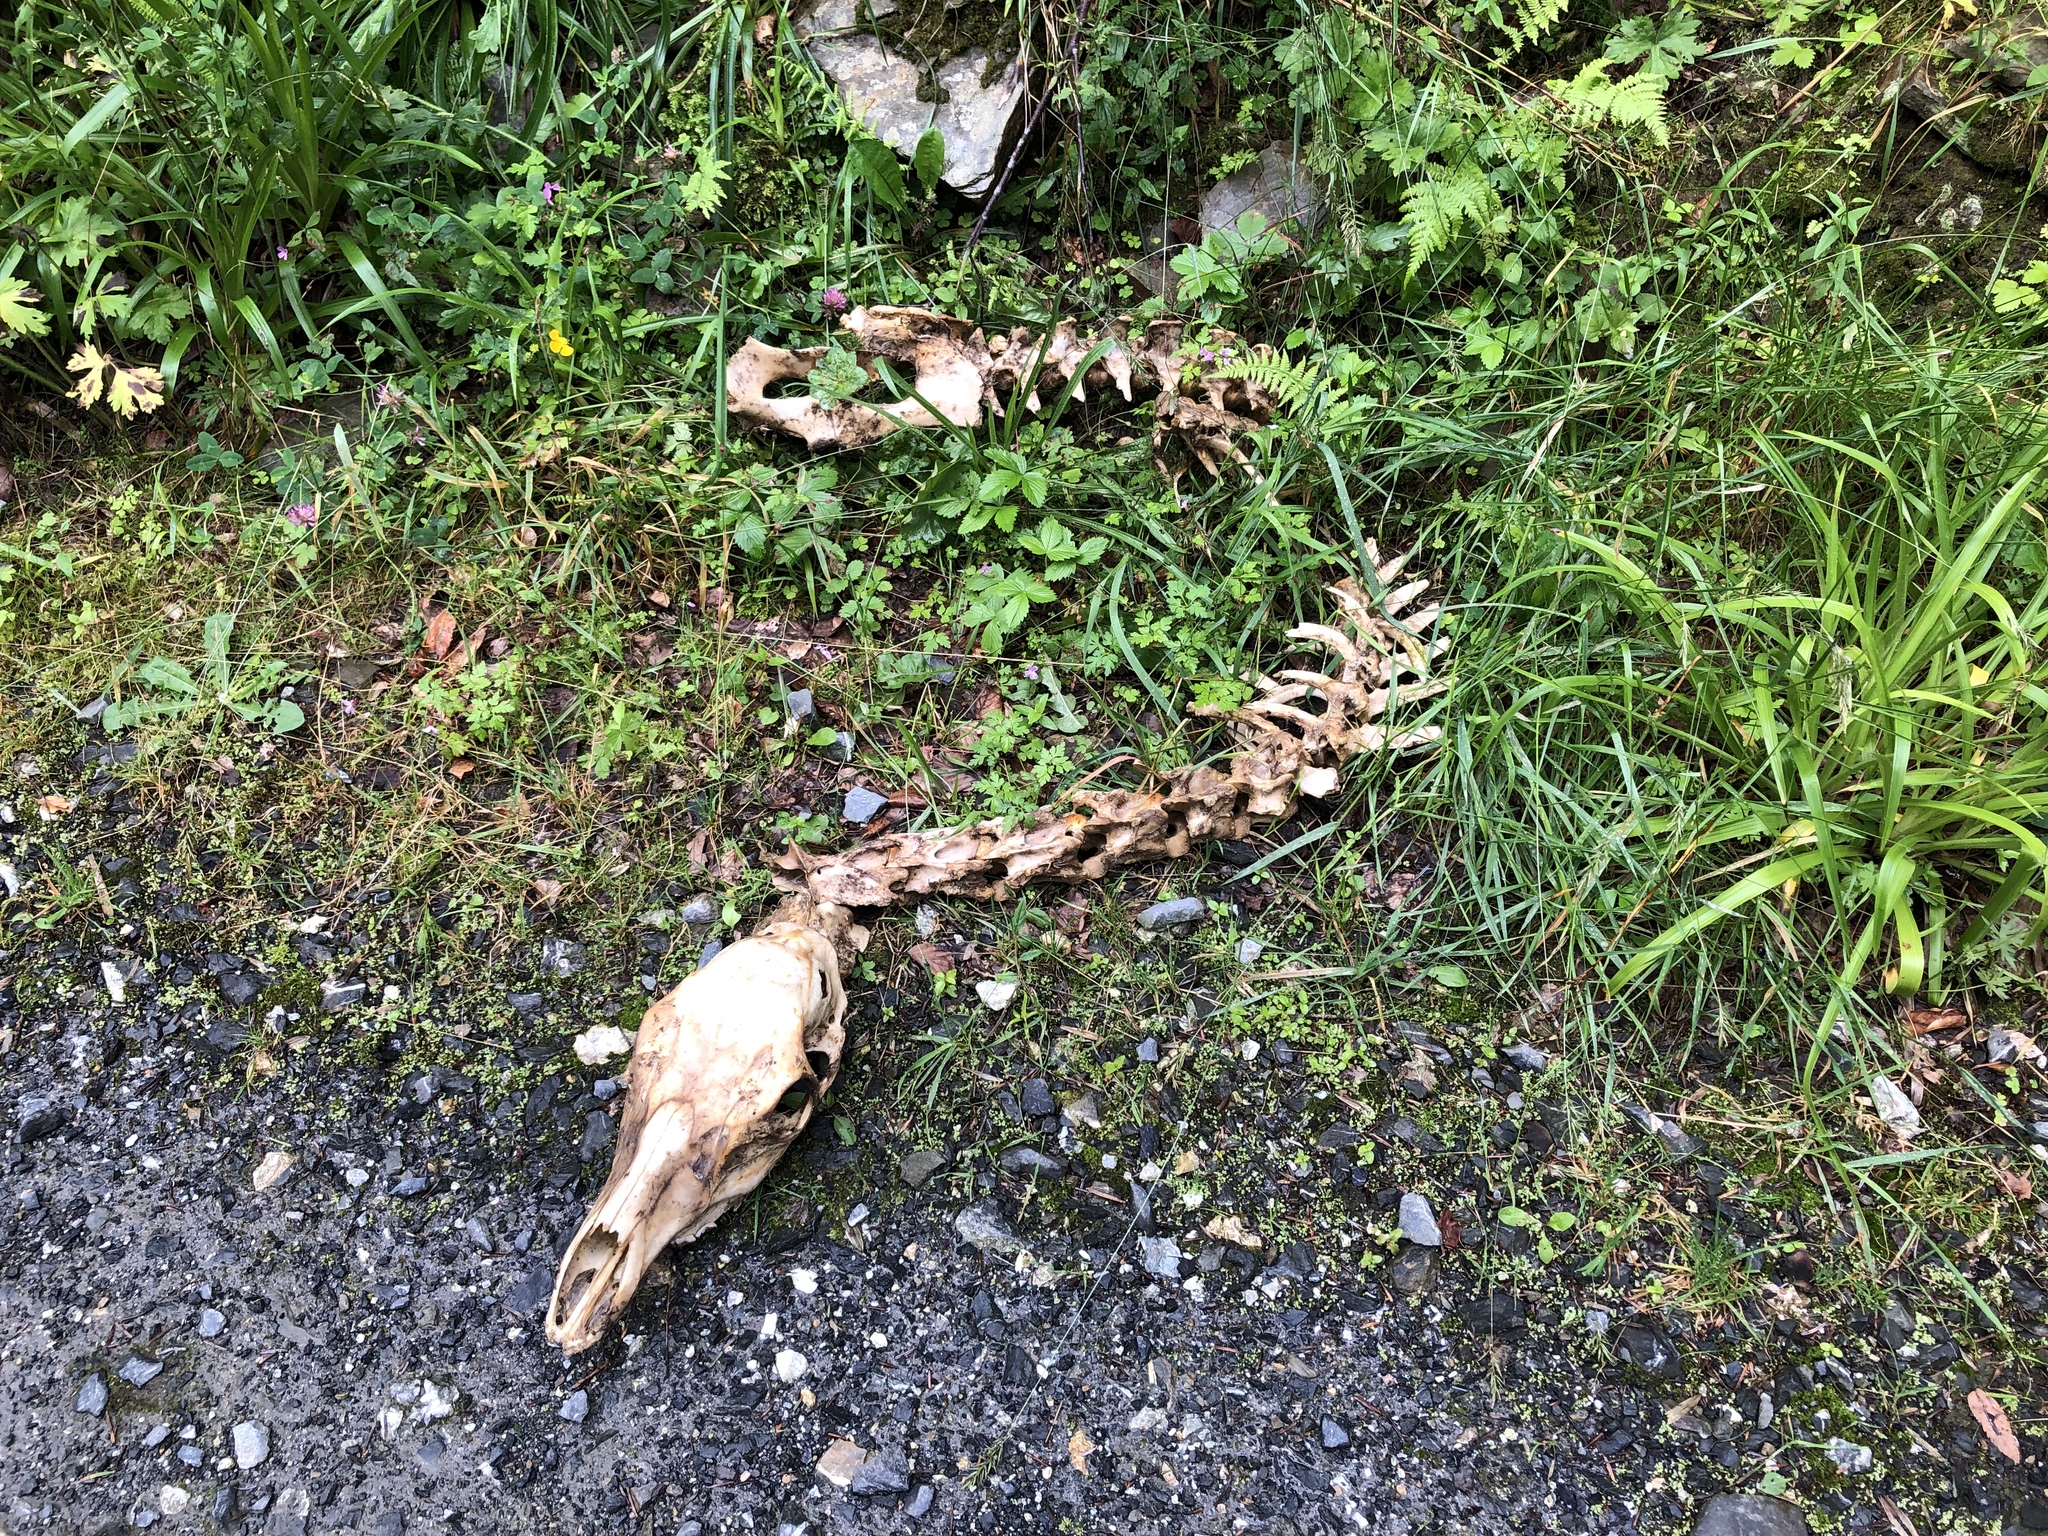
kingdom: Animalia
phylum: Chordata
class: Mammalia
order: Artiodactyla
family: Cervidae
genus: Cervus
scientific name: Cervus elaphus
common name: Red deer
